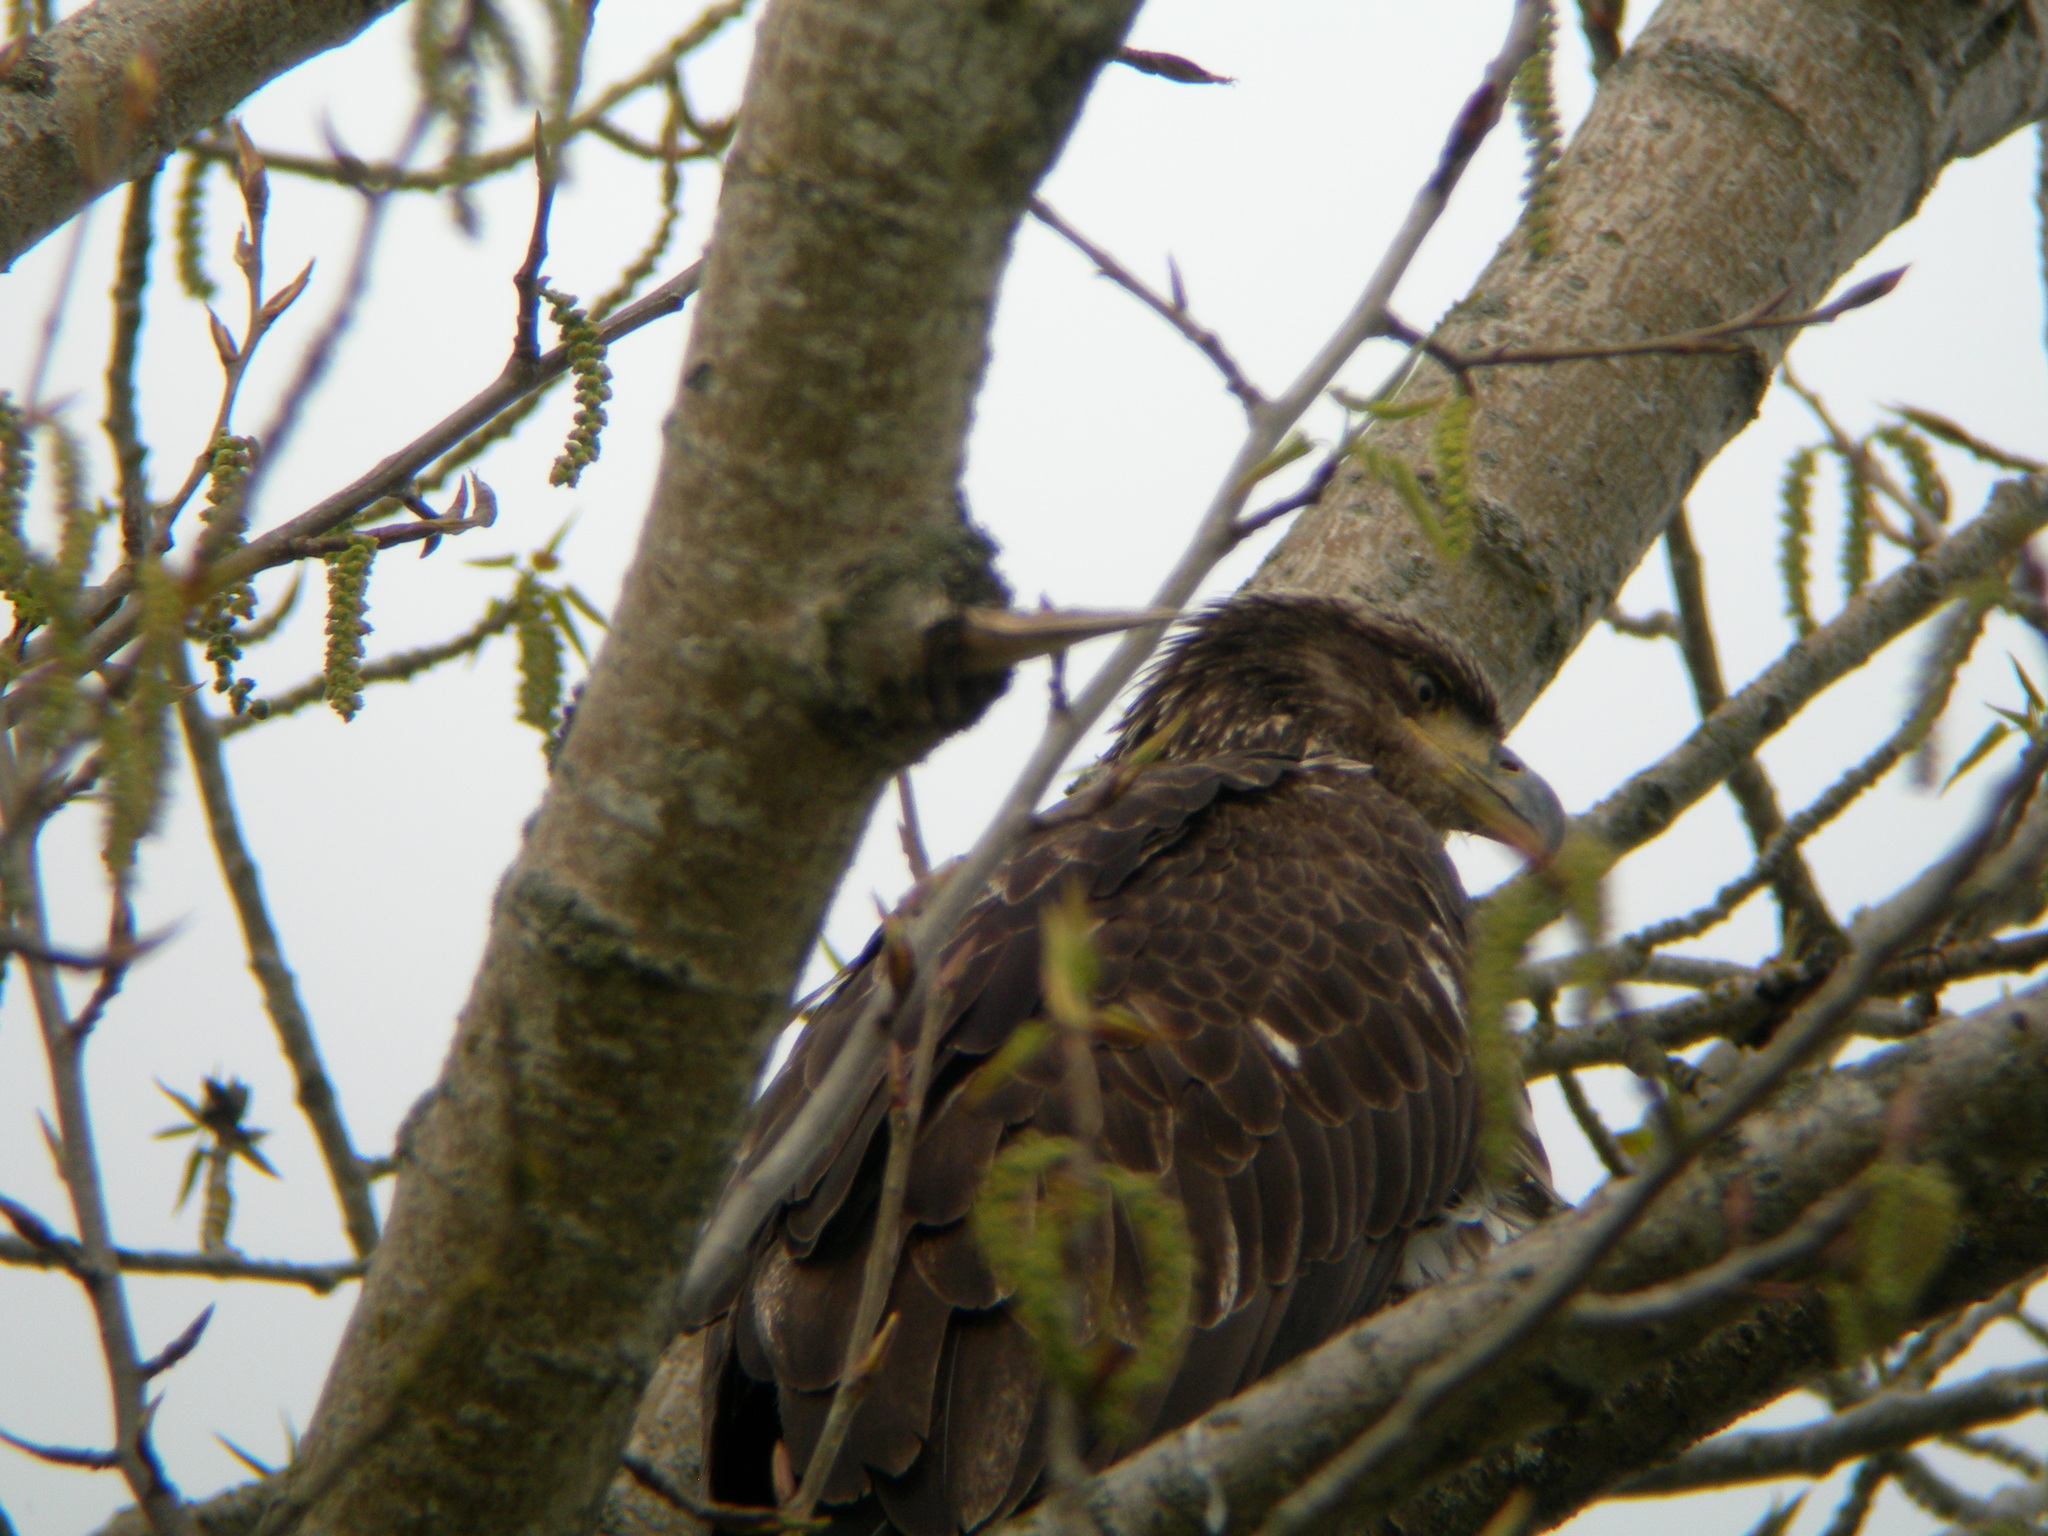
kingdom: Animalia
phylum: Chordata
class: Aves
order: Accipitriformes
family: Accipitridae
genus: Haliaeetus
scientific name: Haliaeetus leucocephalus
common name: Bald eagle
